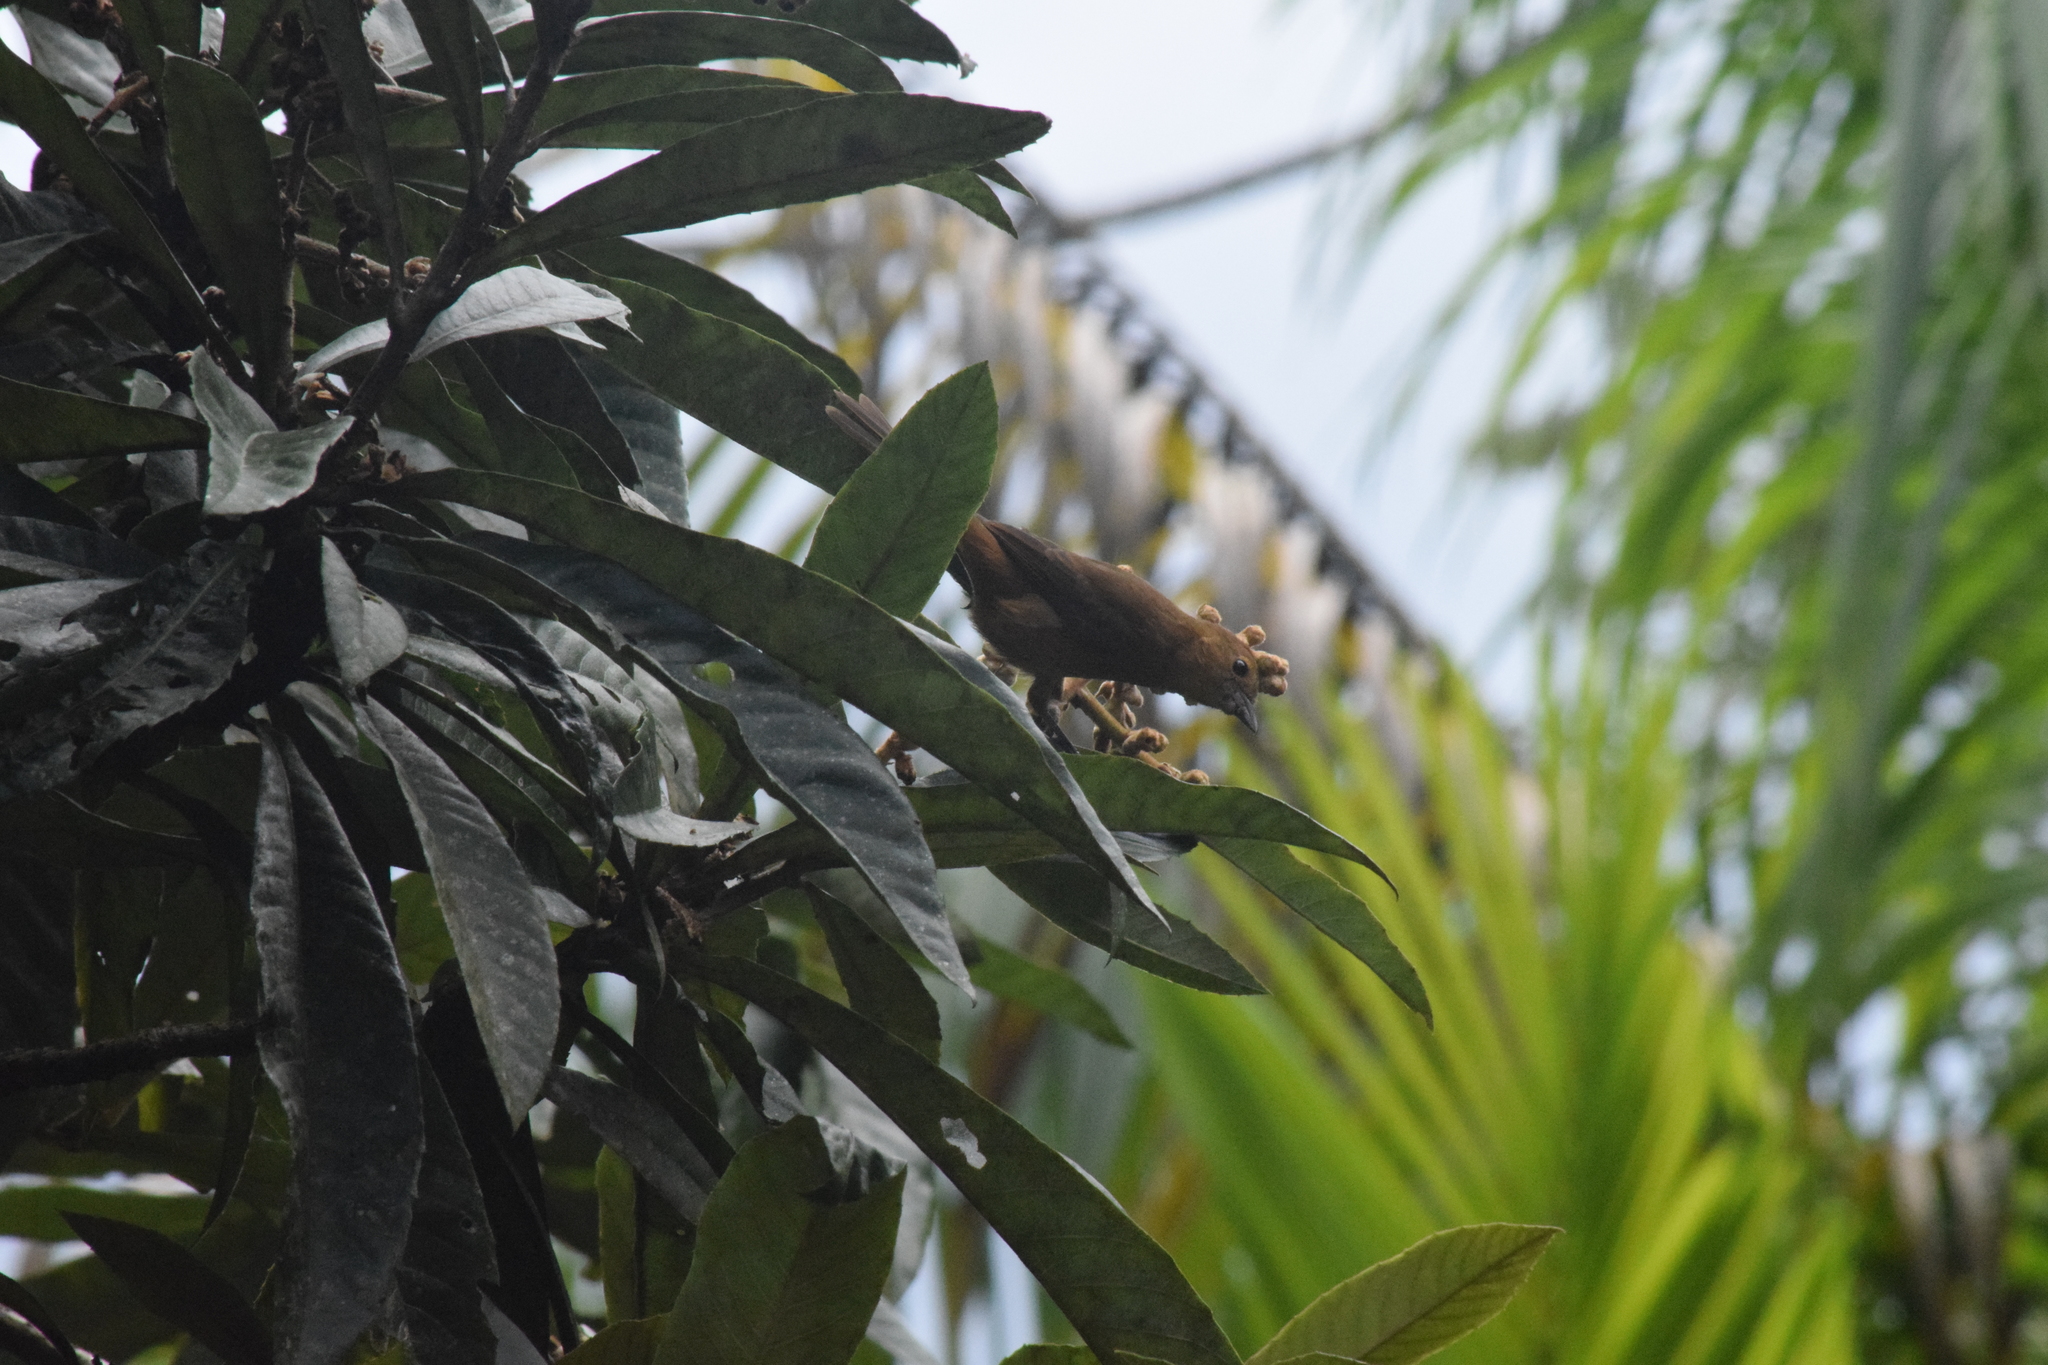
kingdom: Animalia
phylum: Chordata
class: Aves
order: Passeriformes
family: Thraupidae
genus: Tachyphonus
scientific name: Tachyphonus coronatus
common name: Ruby-crowned tanager
